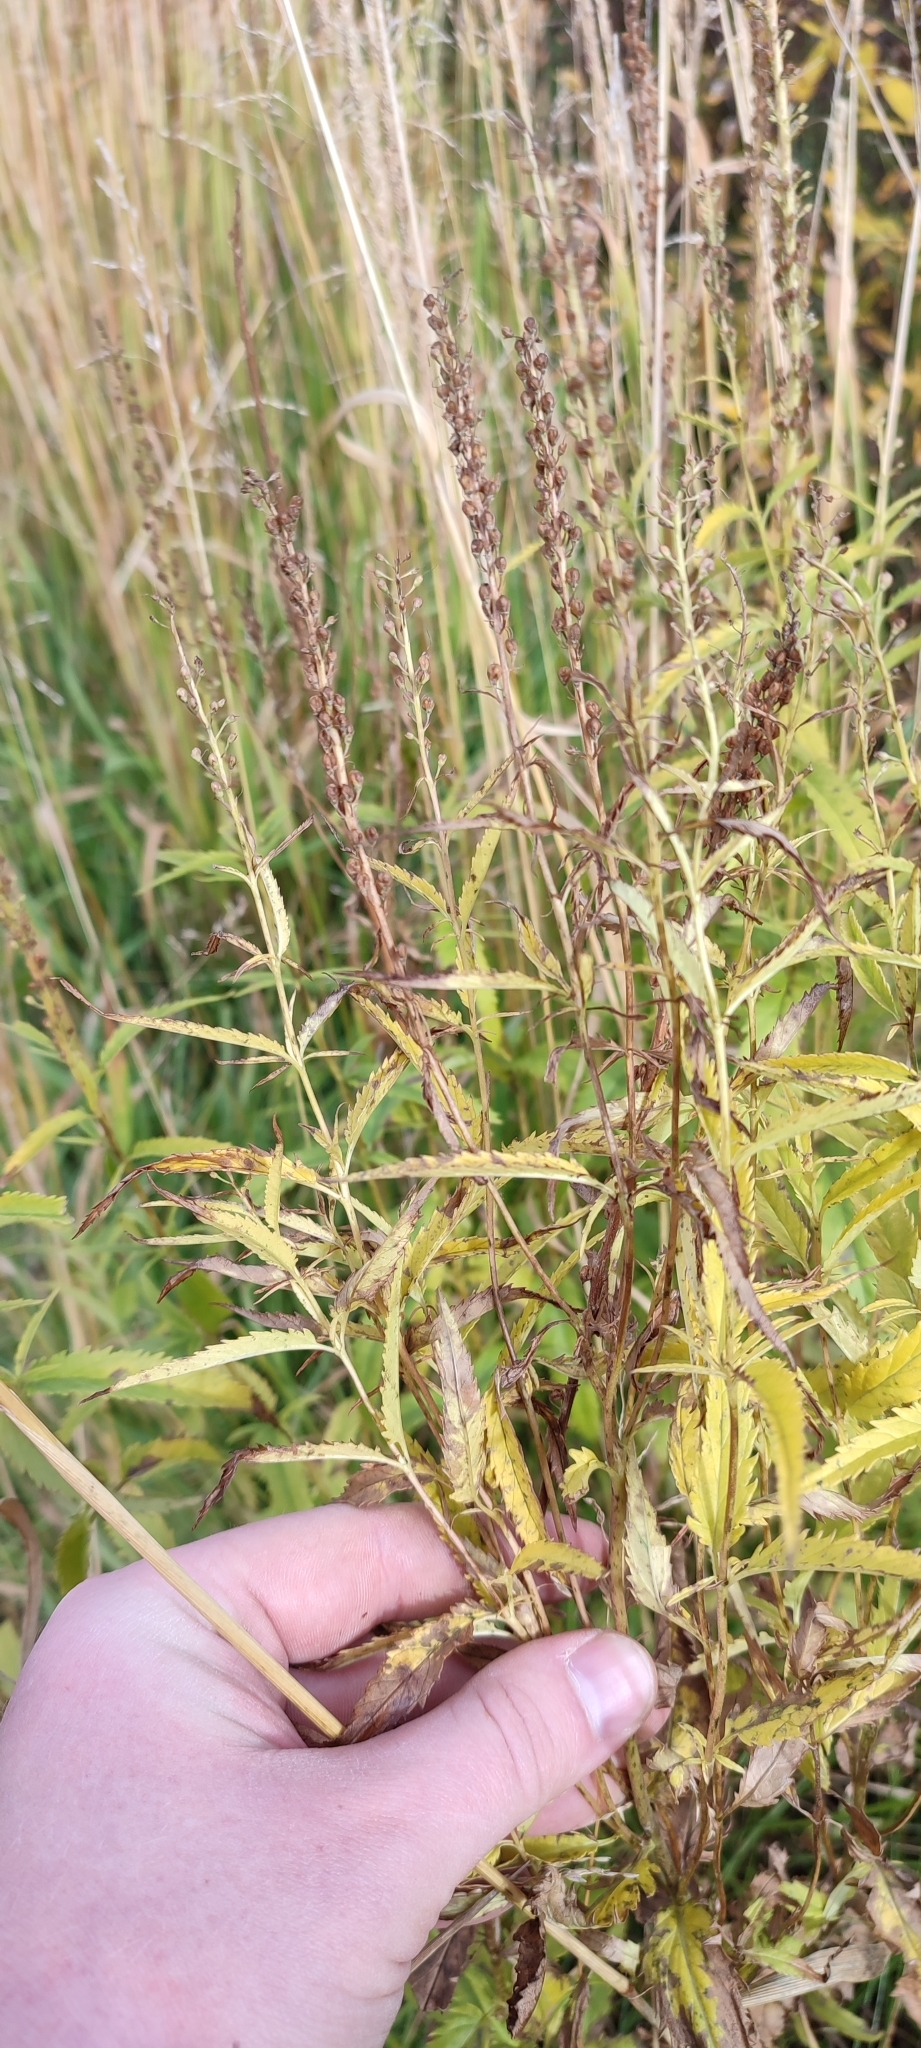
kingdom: Plantae
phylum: Tracheophyta
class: Magnoliopsida
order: Lamiales
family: Plantaginaceae
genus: Veronica
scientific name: Veronica longifolia
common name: Garden speedwell
